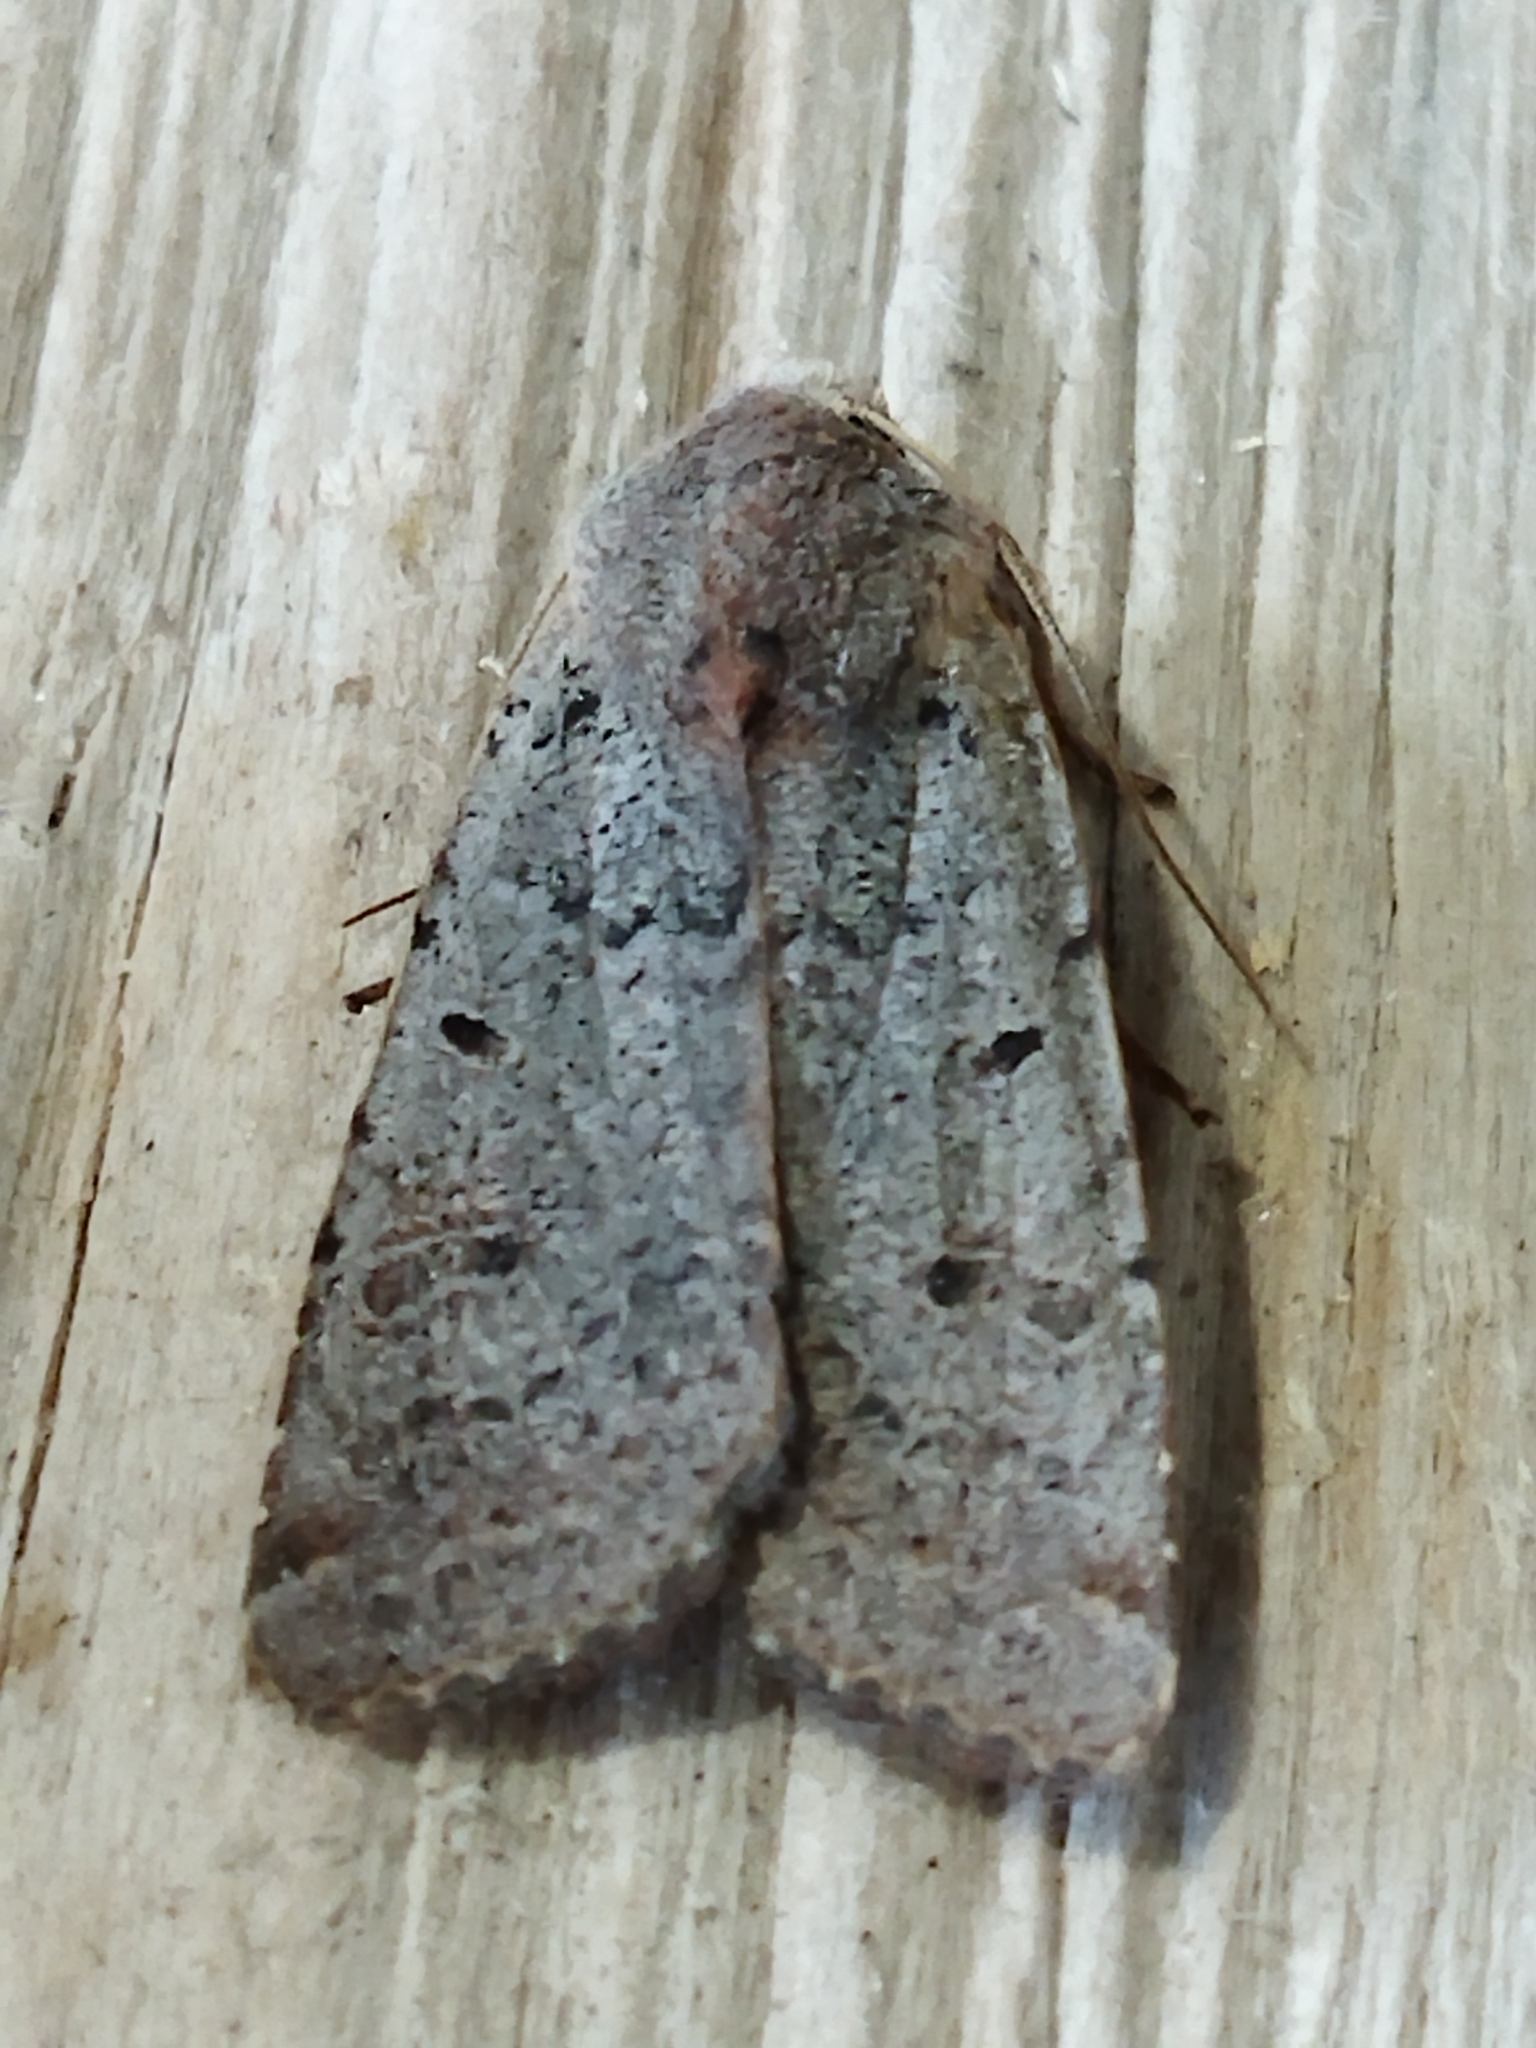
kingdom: Animalia
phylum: Arthropoda
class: Insecta
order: Lepidoptera
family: Noctuidae
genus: Agrochola
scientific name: Agrochola lychnidis
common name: Beaded chestnut
